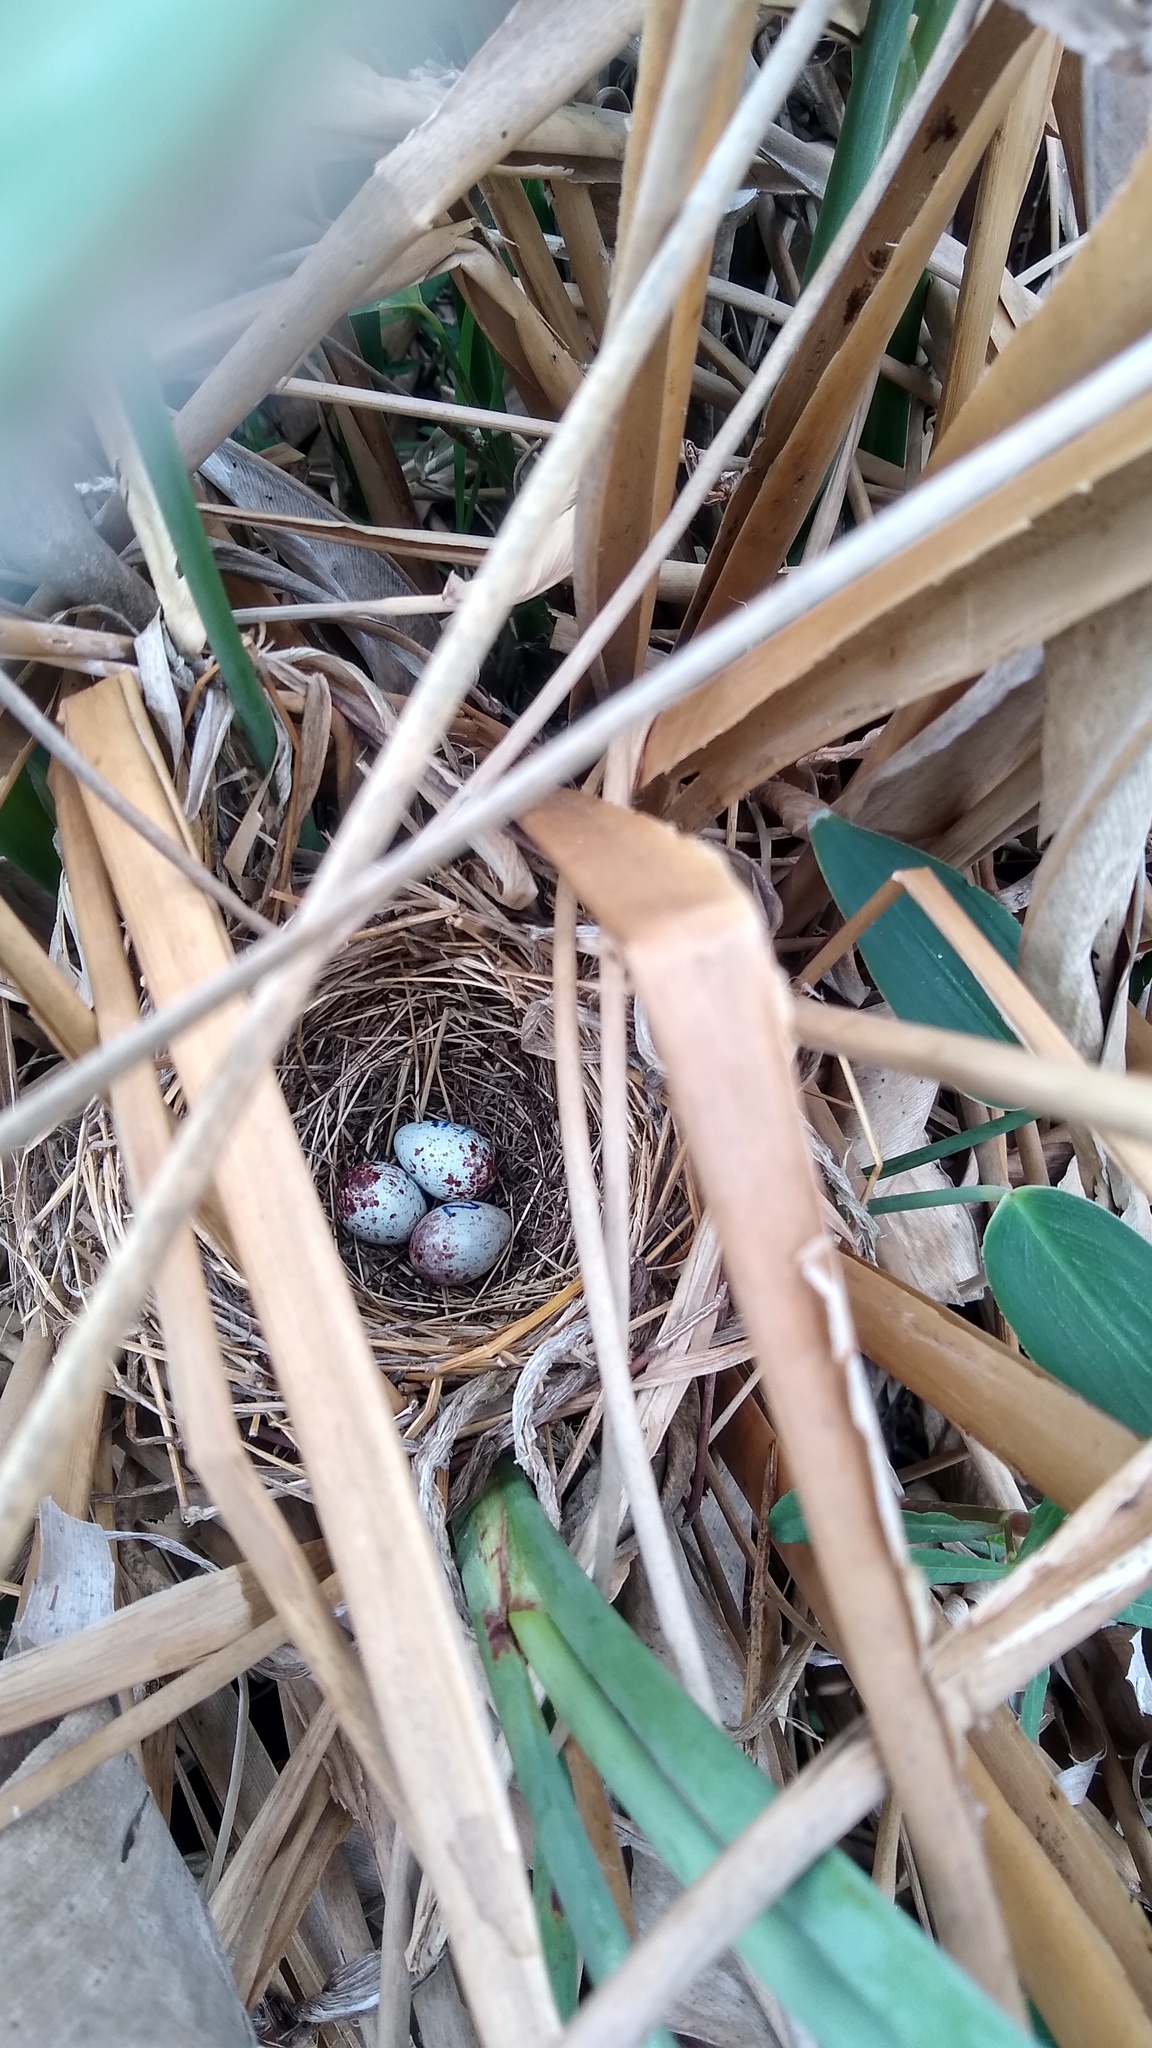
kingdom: Animalia
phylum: Chordata
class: Aves
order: Passeriformes
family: Icteridae
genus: Xanthopsar
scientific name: Xanthopsar flavus
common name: Saffron-cowled blackbird
